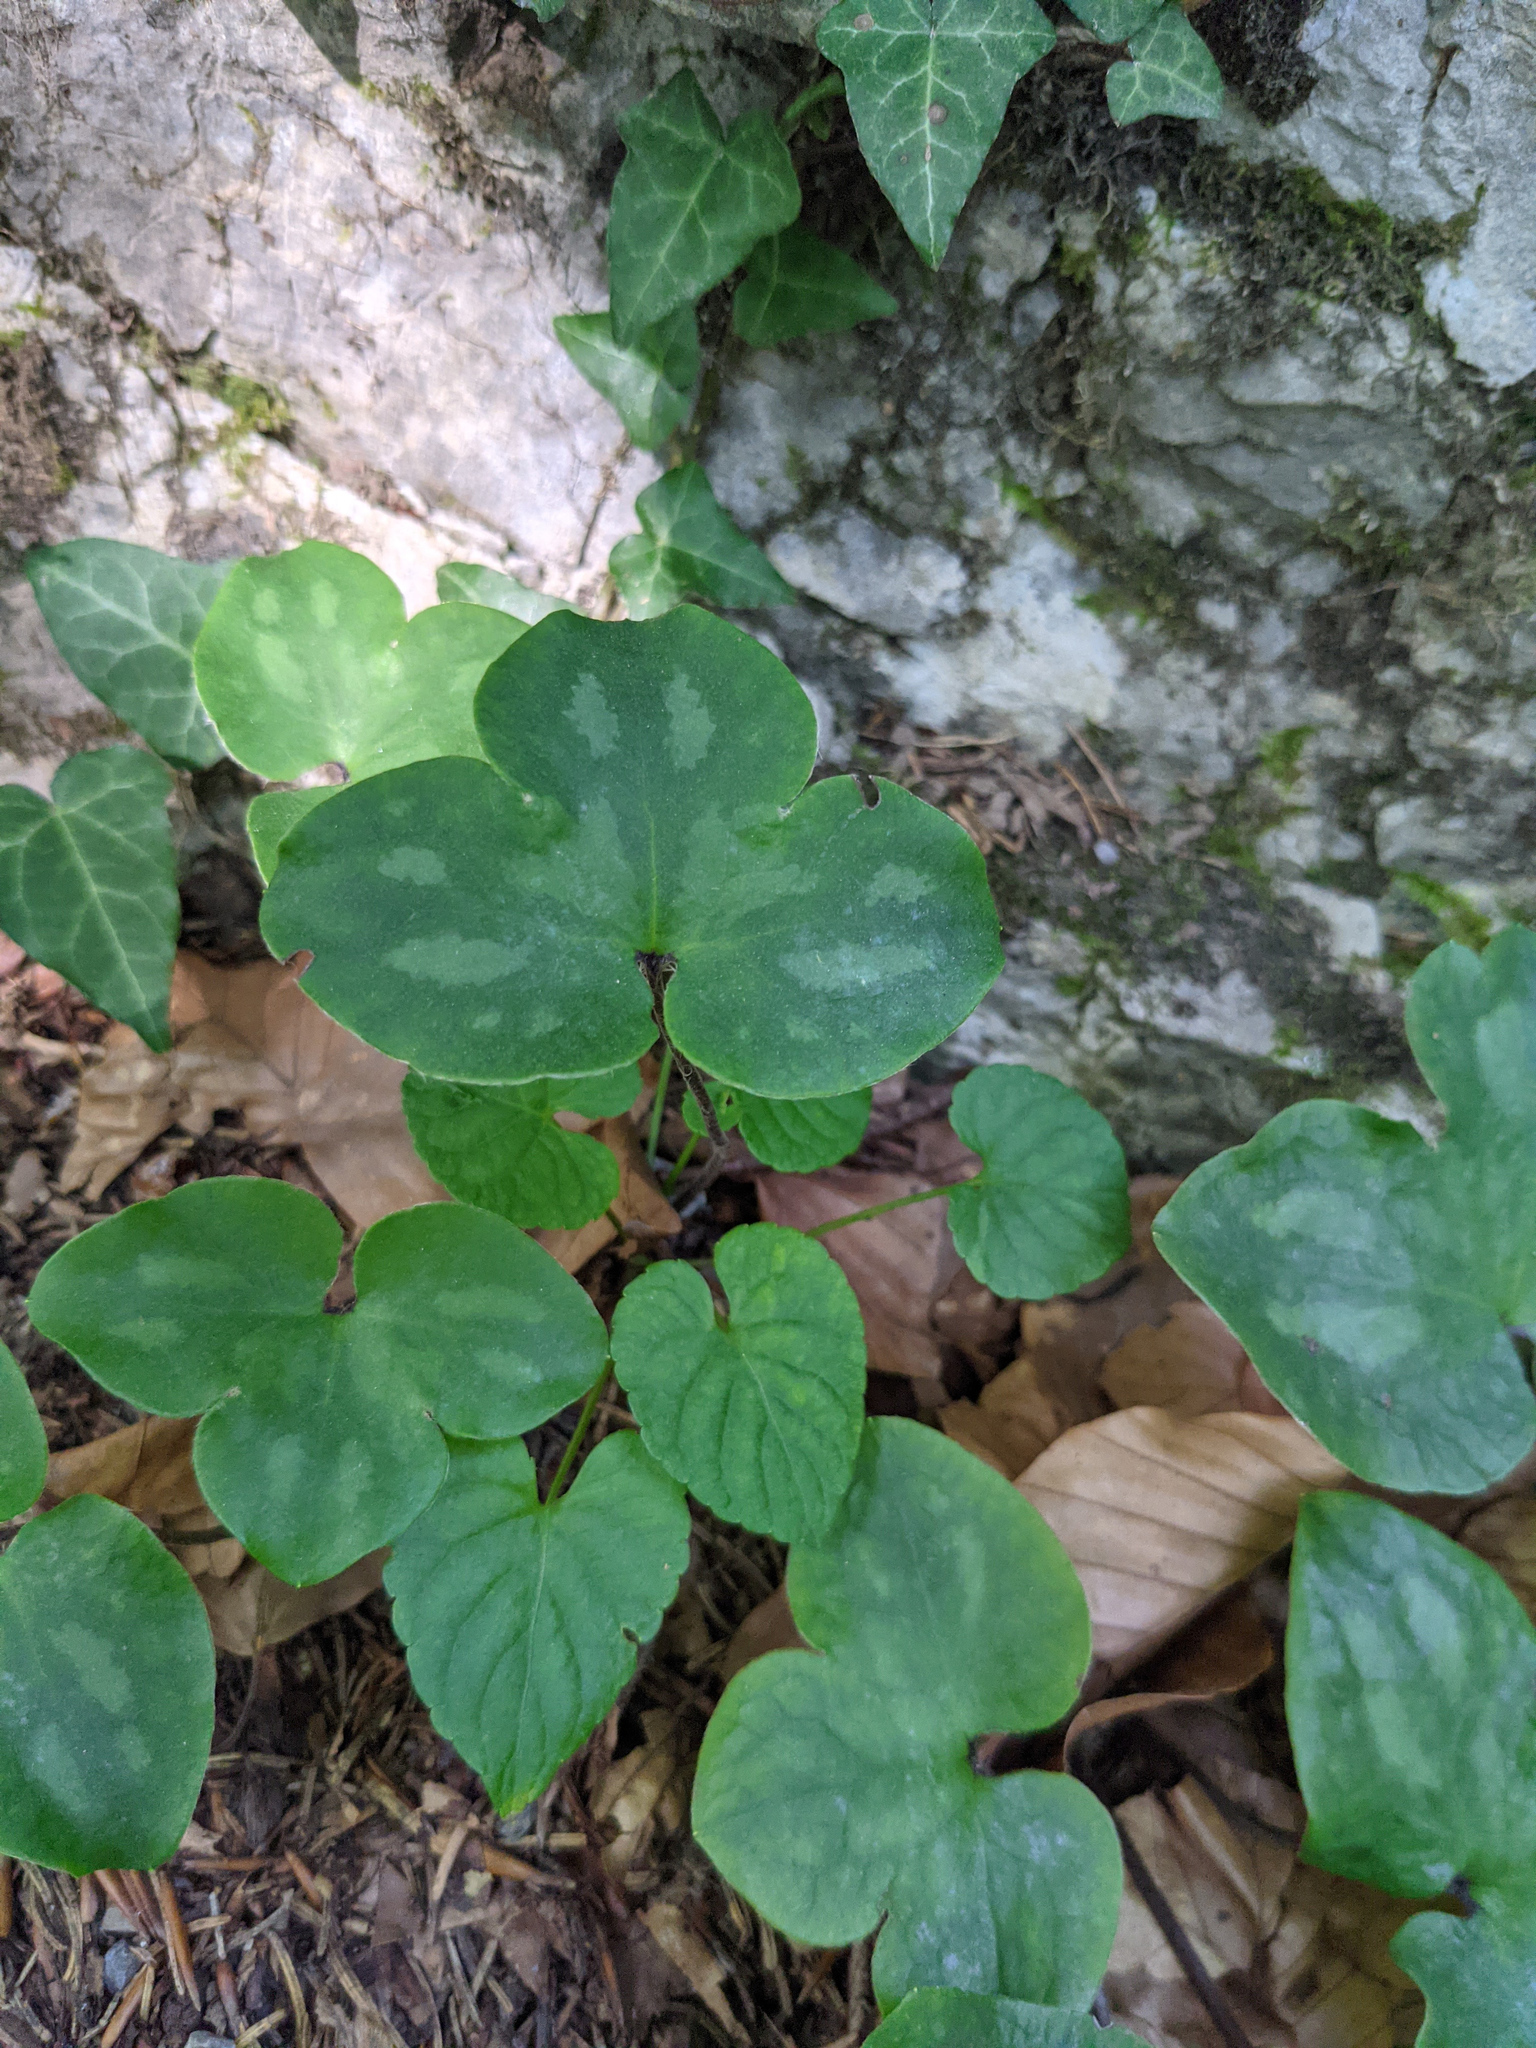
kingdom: Plantae
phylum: Tracheophyta
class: Magnoliopsida
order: Ranunculales
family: Ranunculaceae
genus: Hepatica
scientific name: Hepatica nobilis
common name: Liverleaf
